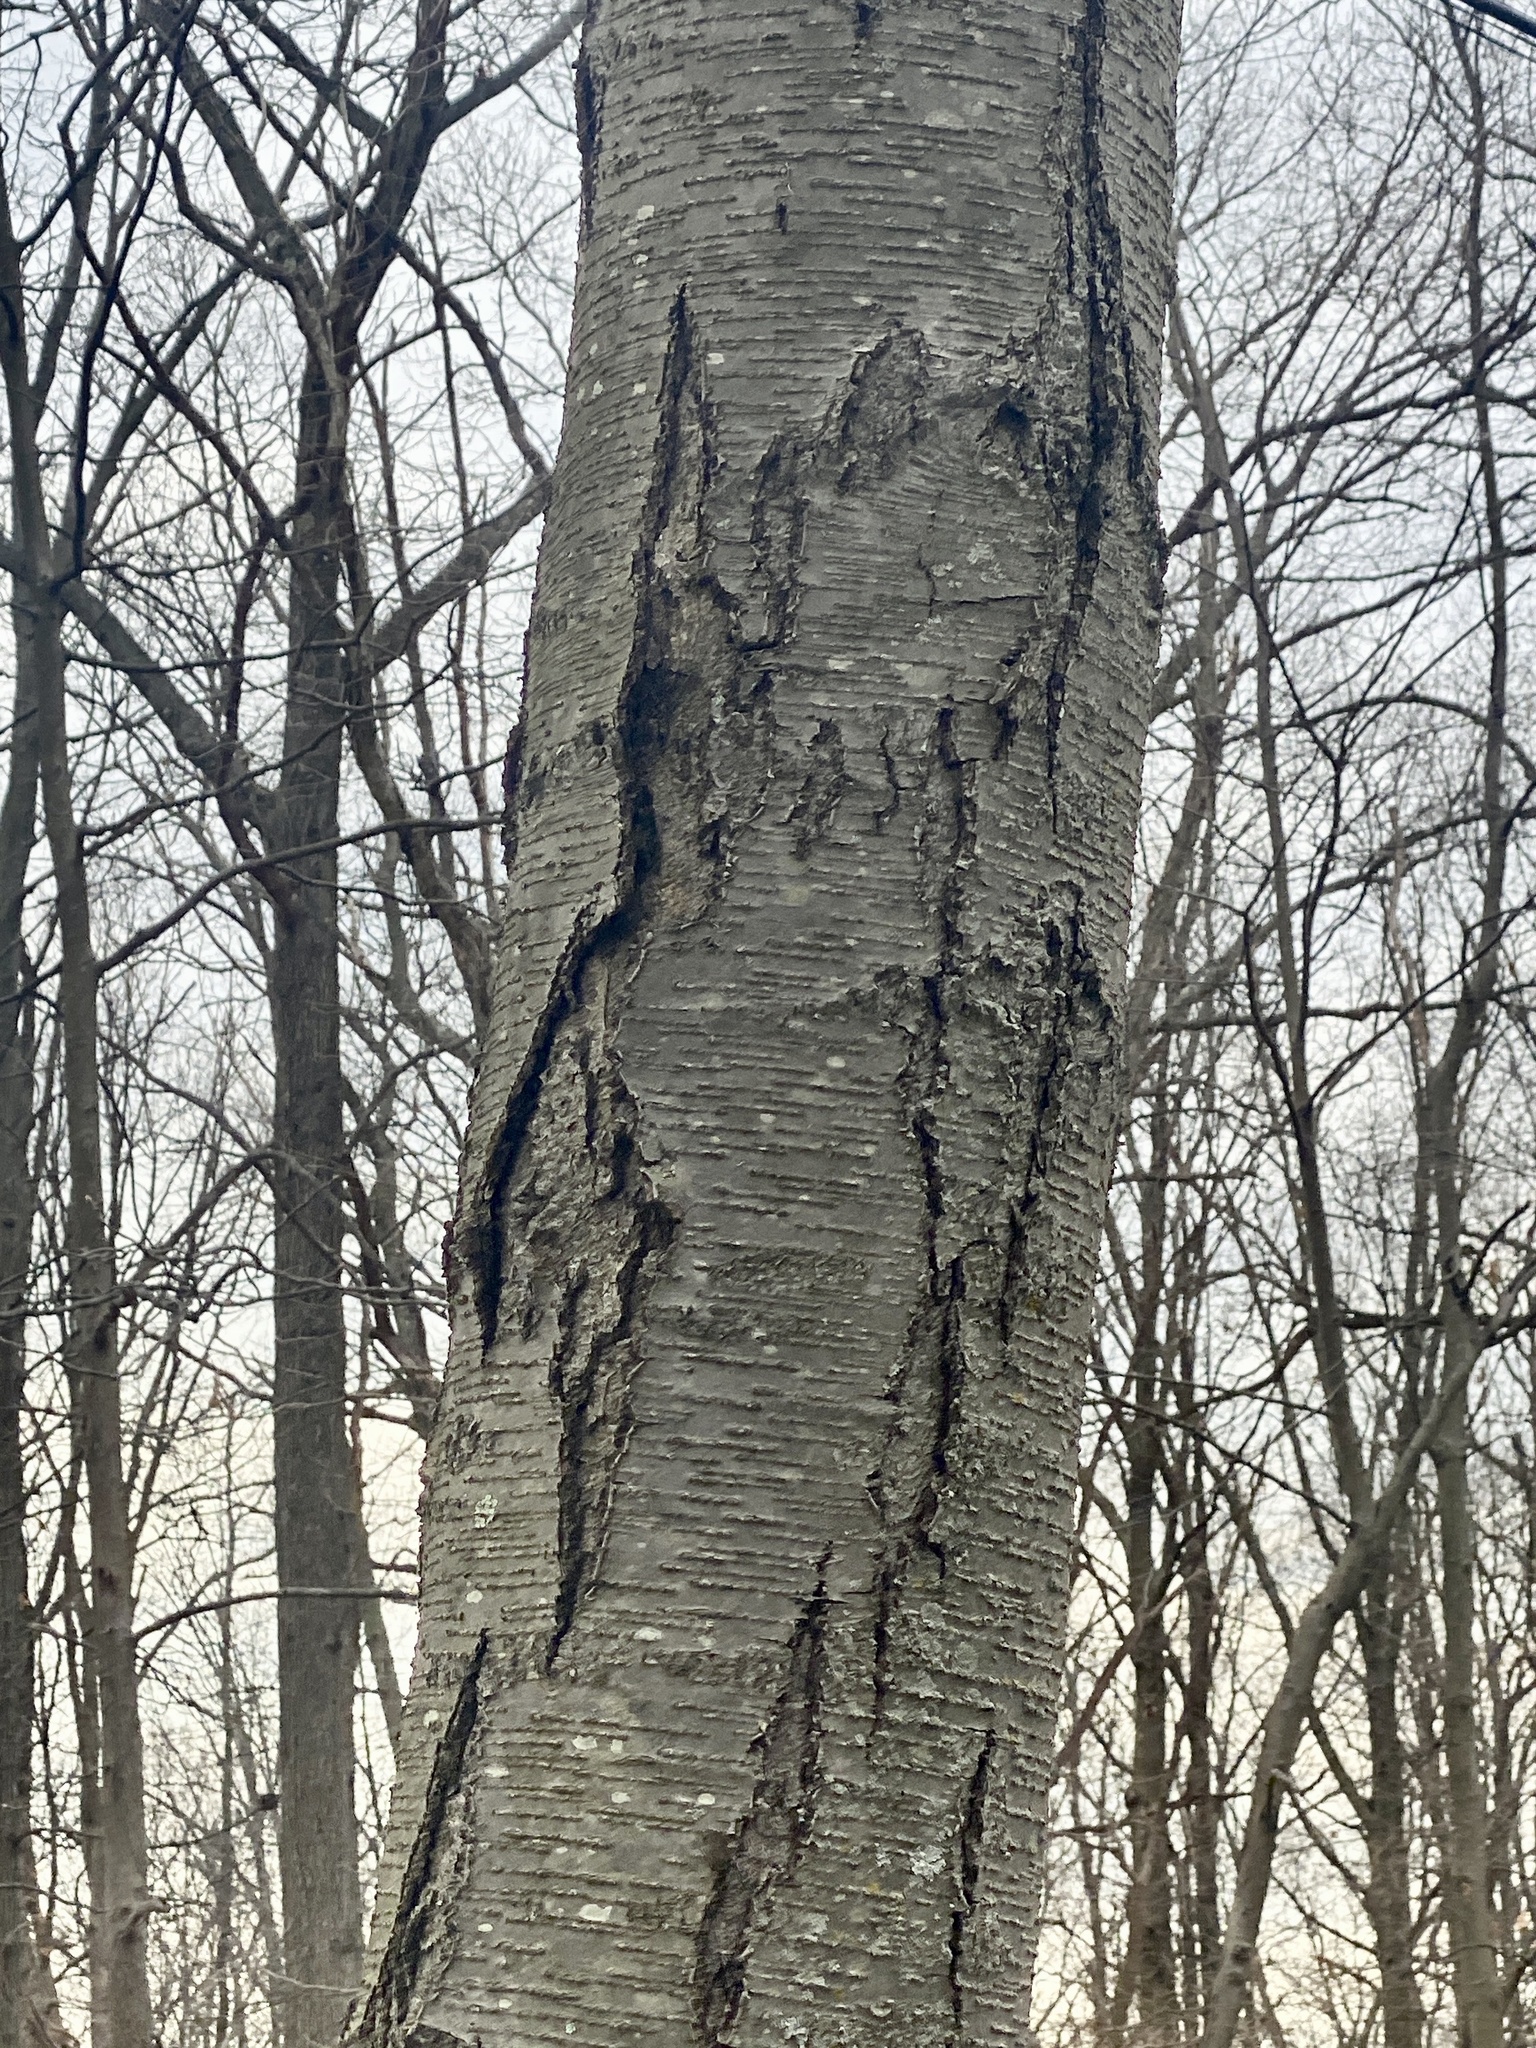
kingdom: Plantae
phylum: Tracheophyta
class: Magnoliopsida
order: Fagales
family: Betulaceae
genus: Betula
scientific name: Betula lenta
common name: Black birch
